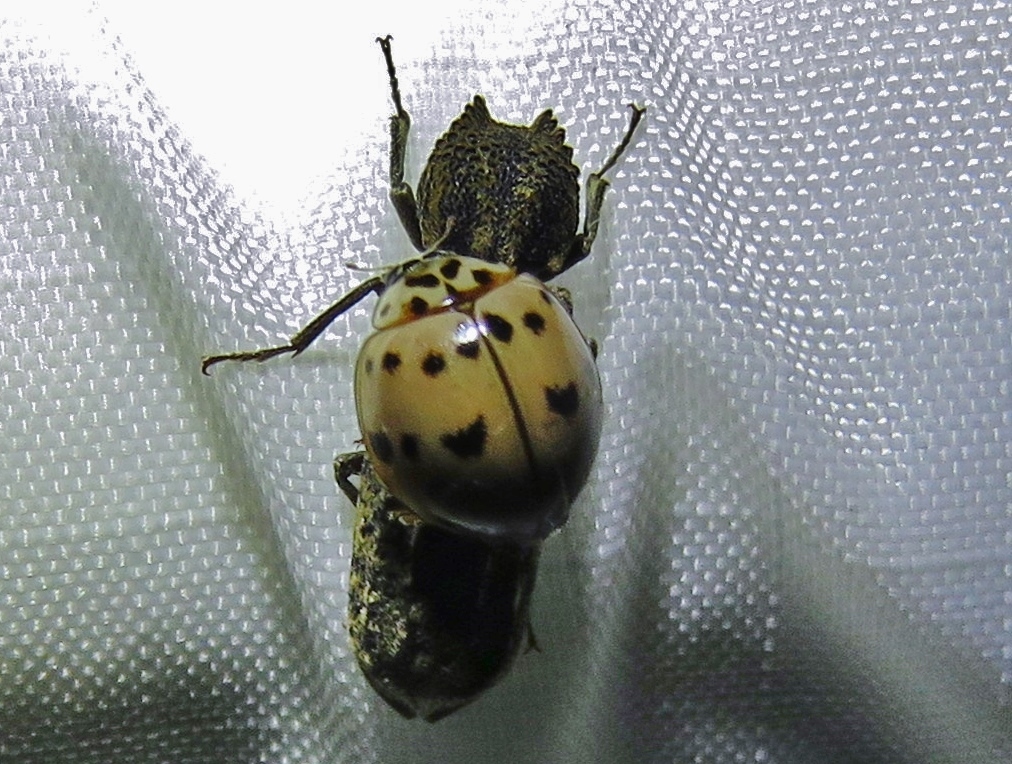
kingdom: Animalia
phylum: Arthropoda
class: Insecta
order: Coleoptera
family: Coccinellidae
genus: Olla
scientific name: Olla v-nigrum
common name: Ashy gray lady beetle
